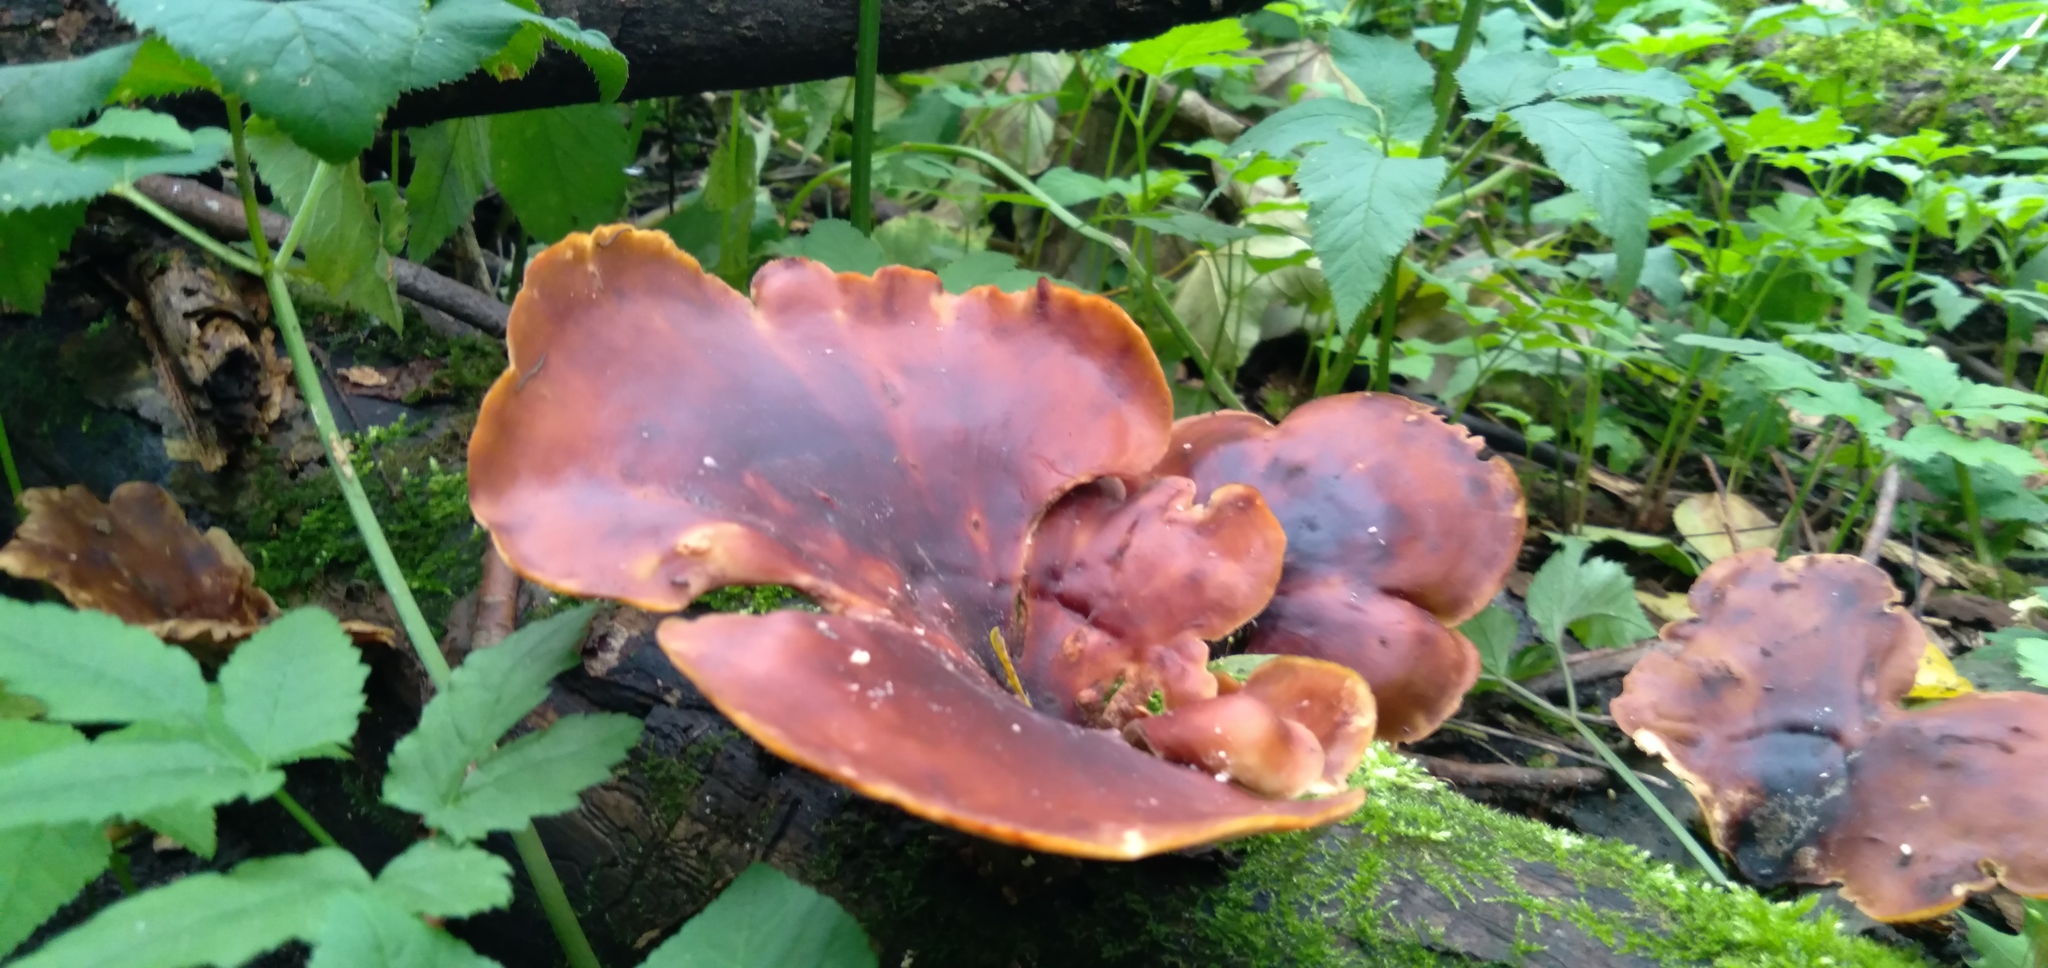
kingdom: Fungi
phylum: Basidiomycota
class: Agaricomycetes
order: Polyporales
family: Polyporaceae
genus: Picipes
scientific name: Picipes badius
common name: Bay polypore
